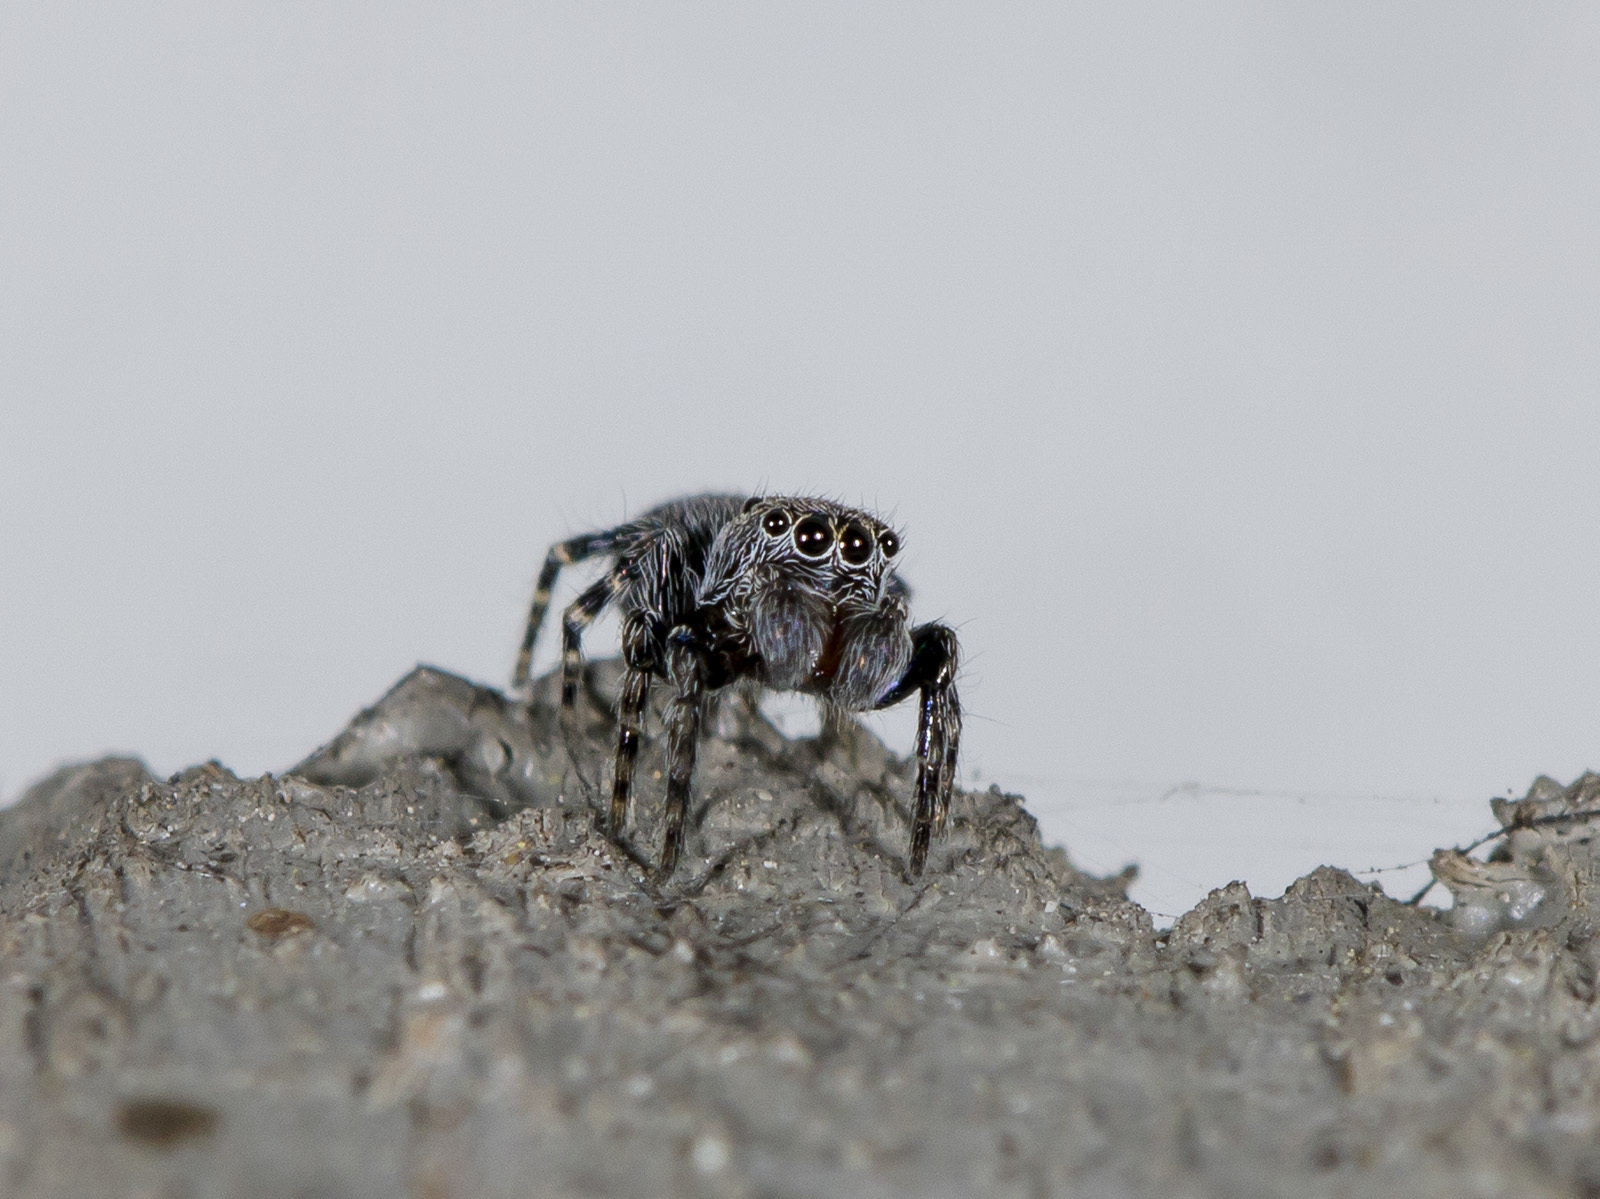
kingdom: Animalia
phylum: Arthropoda
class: Arachnida
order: Araneae
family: Salticidae
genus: Talavera
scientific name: Talavera aperta
